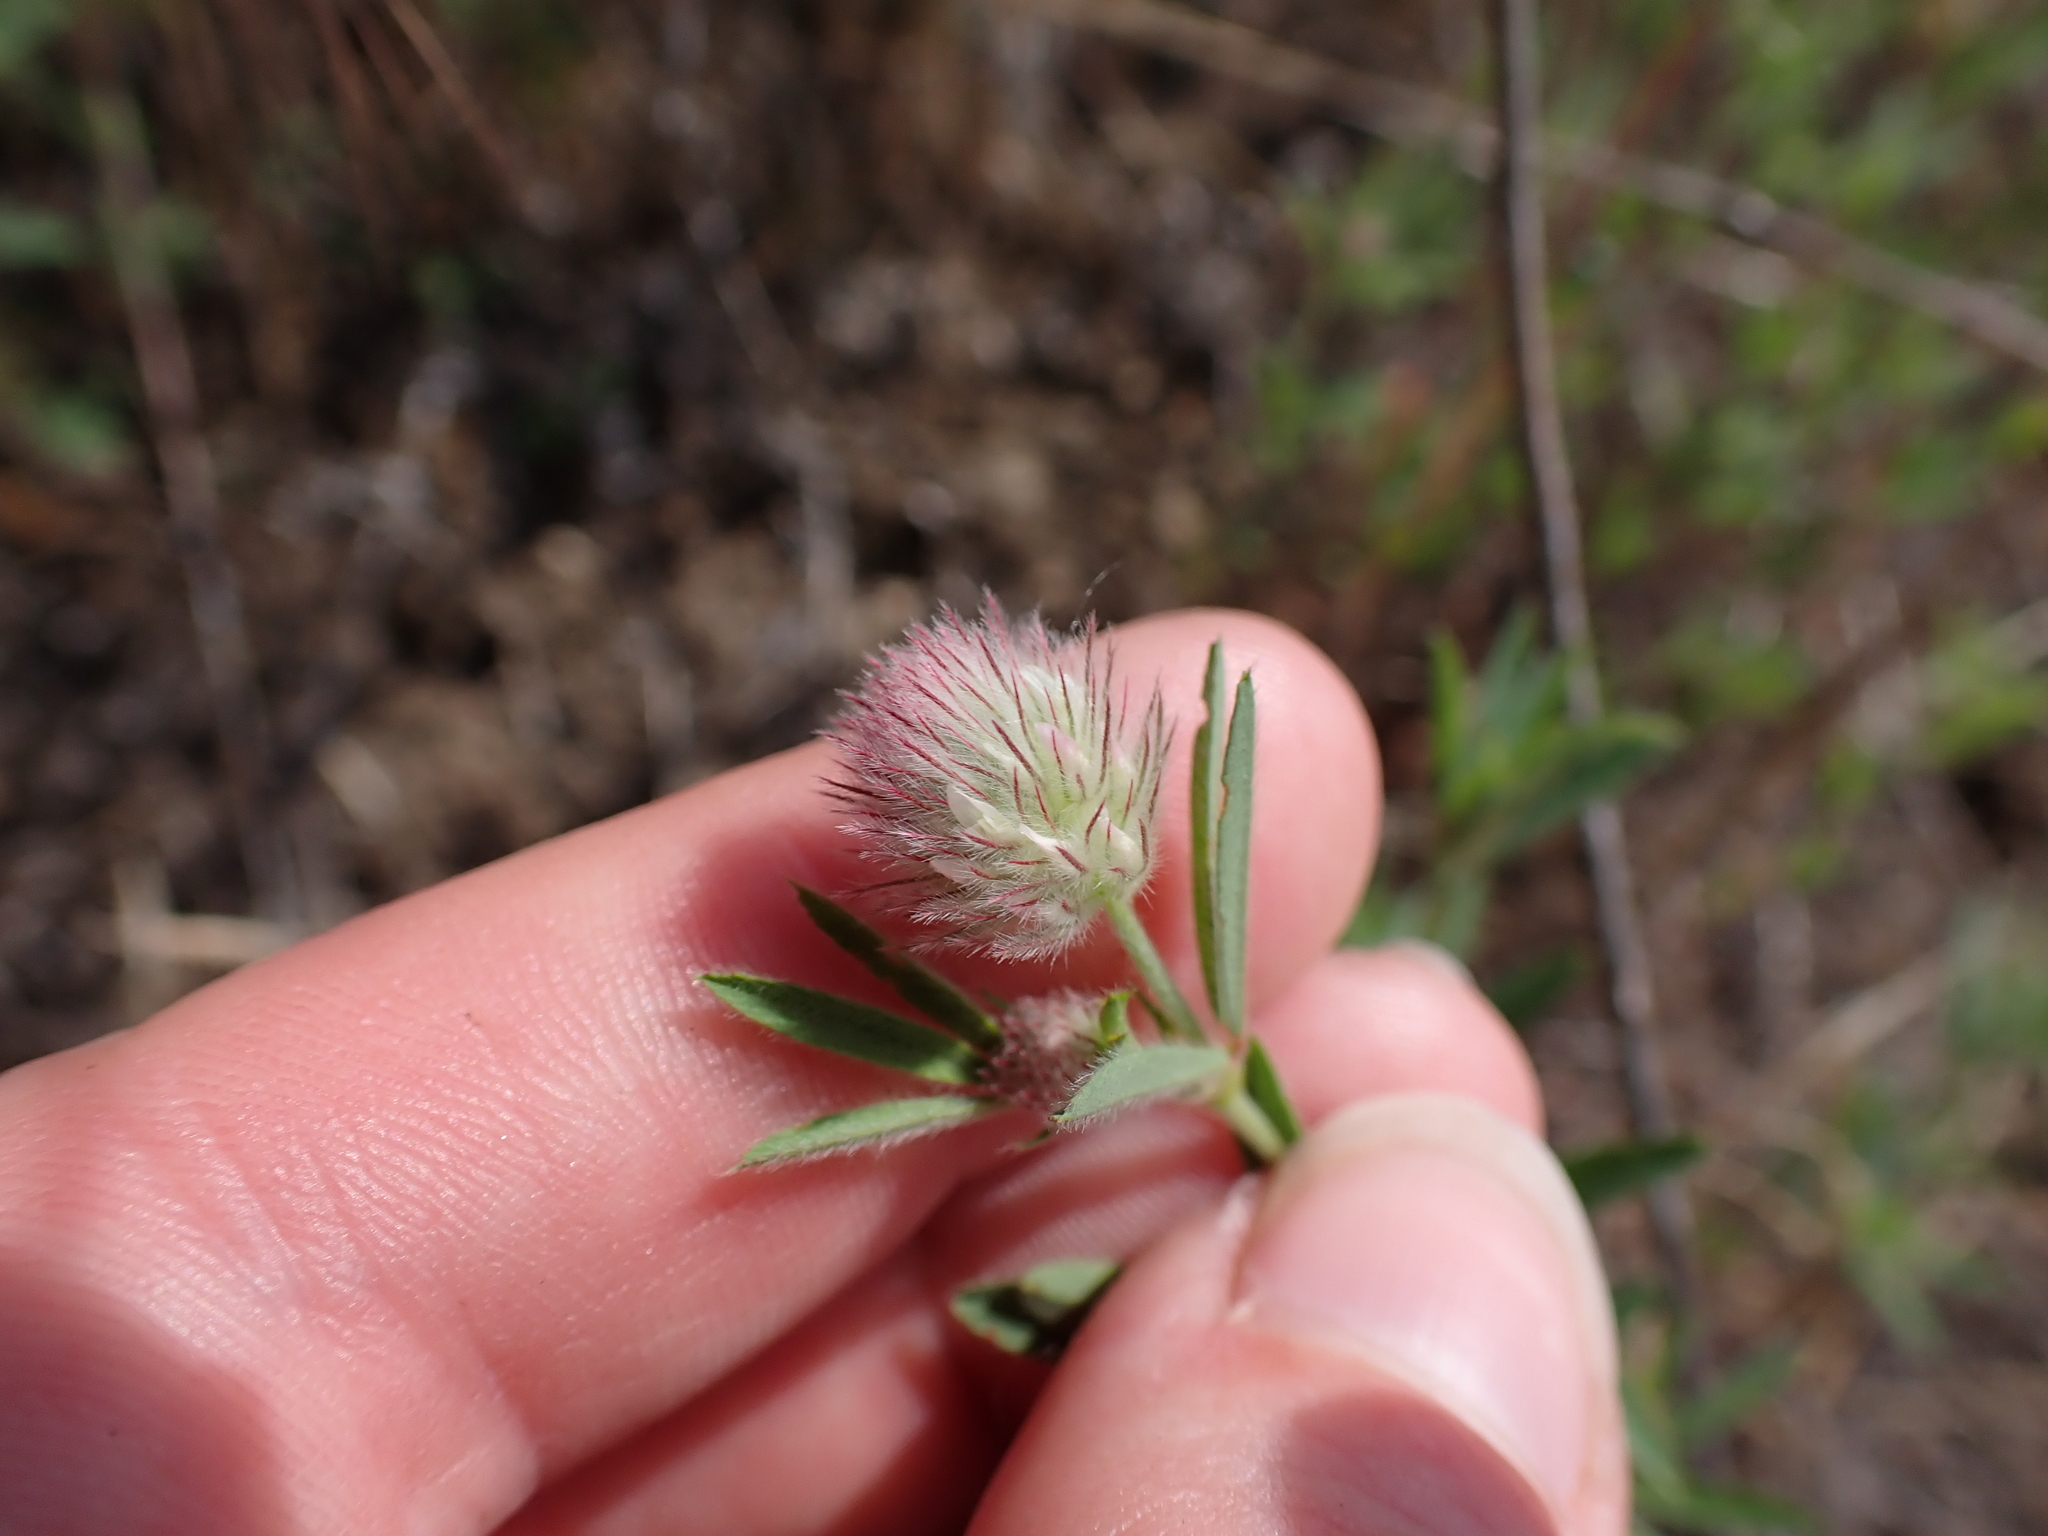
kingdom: Plantae
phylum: Tracheophyta
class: Magnoliopsida
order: Fabales
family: Fabaceae
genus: Trifolium
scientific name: Trifolium arvense
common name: Hare's-foot clover
